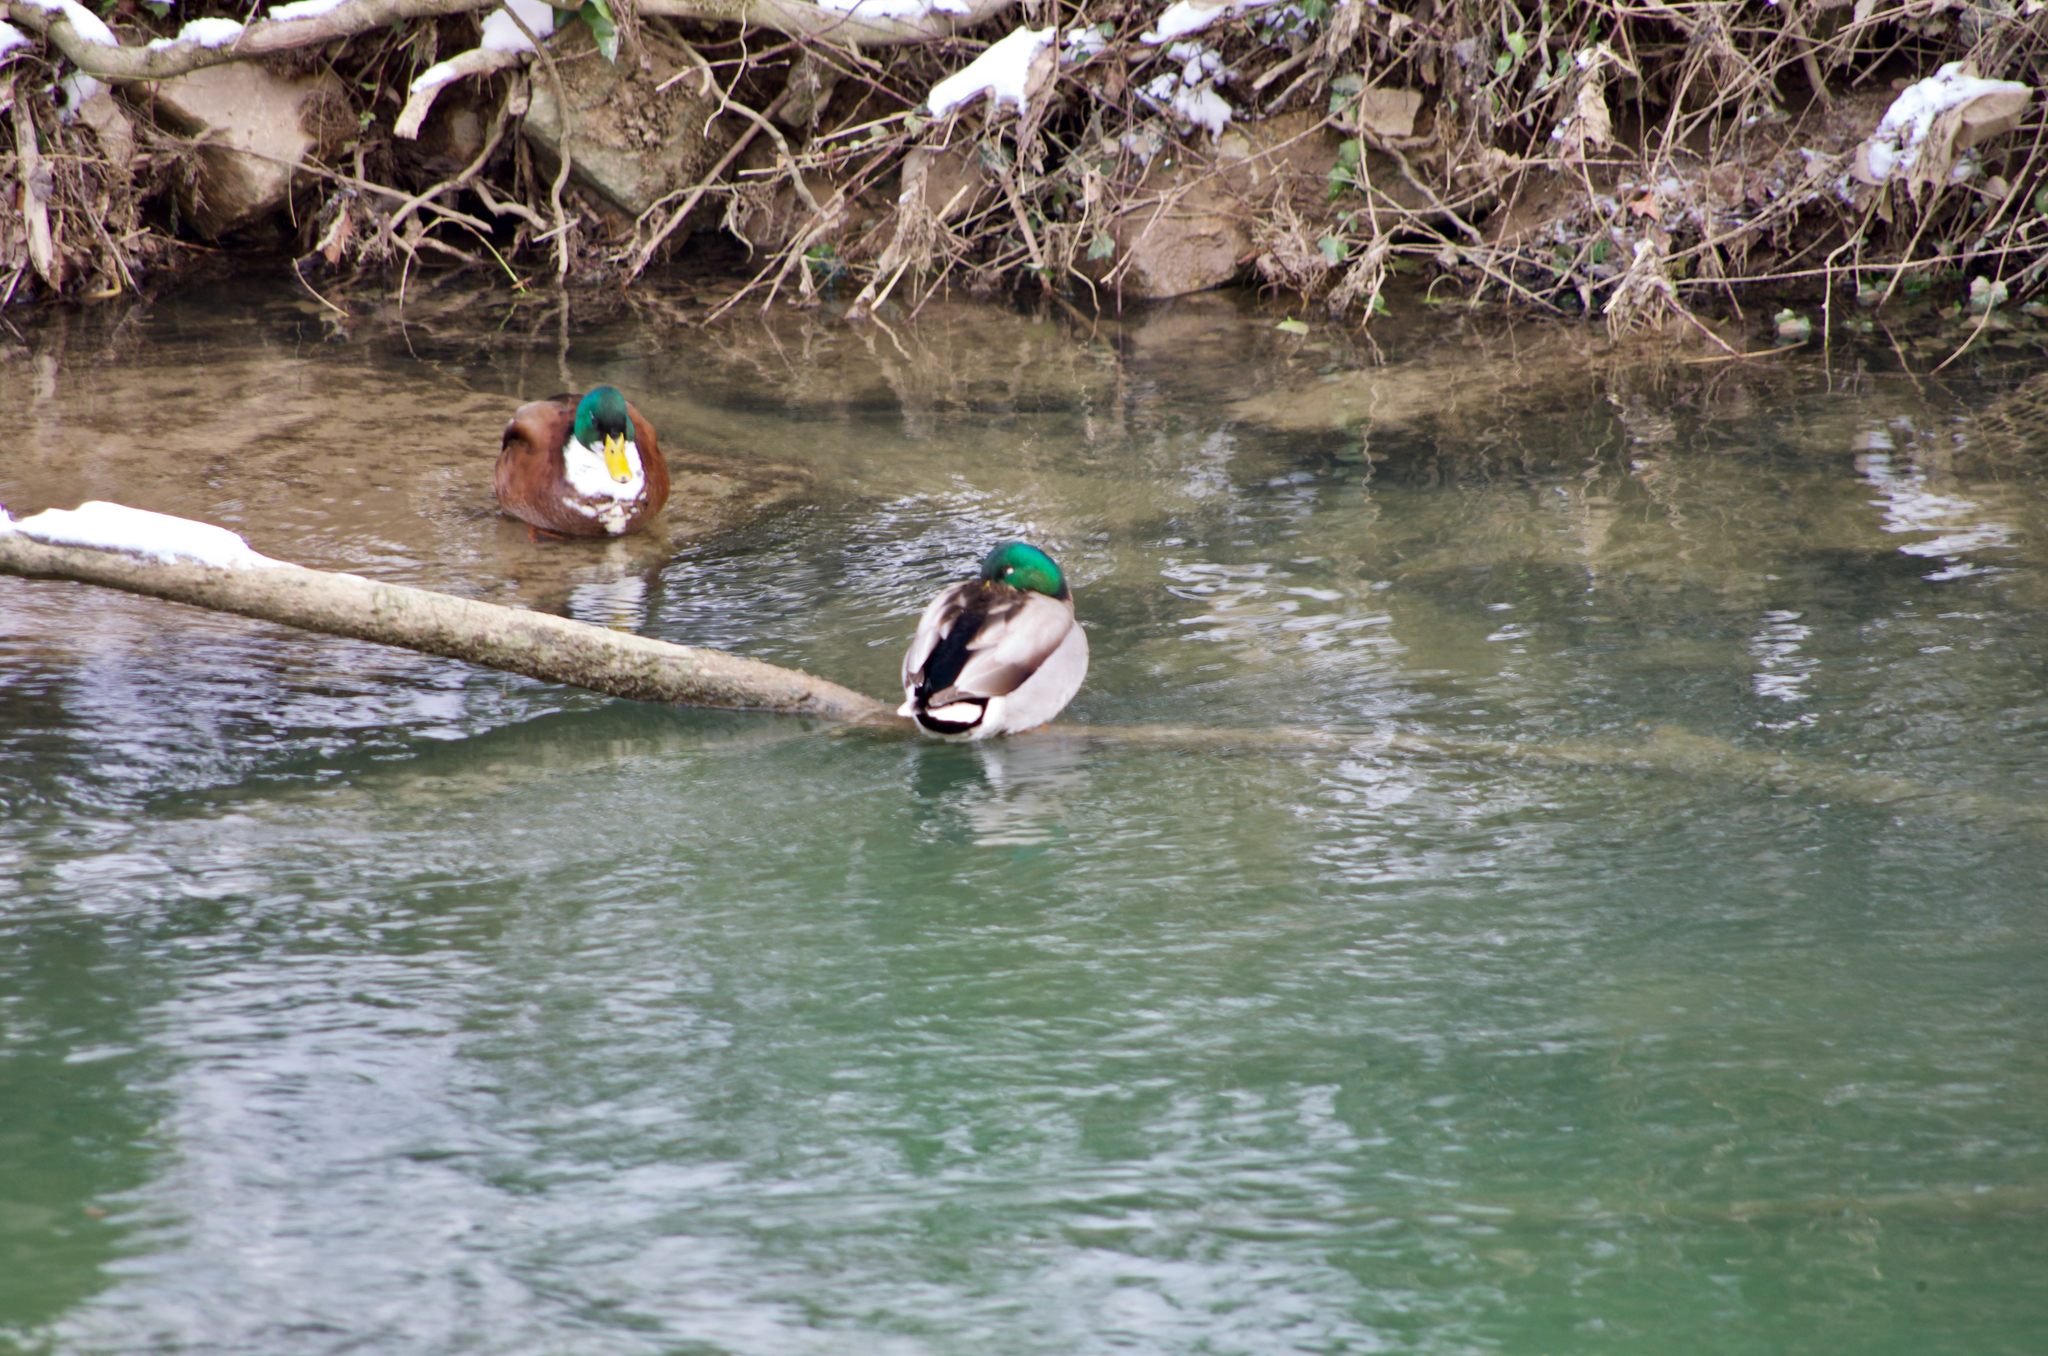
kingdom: Animalia
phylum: Chordata
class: Aves
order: Anseriformes
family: Anatidae
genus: Anas
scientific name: Anas platyrhynchos
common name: Mallard
